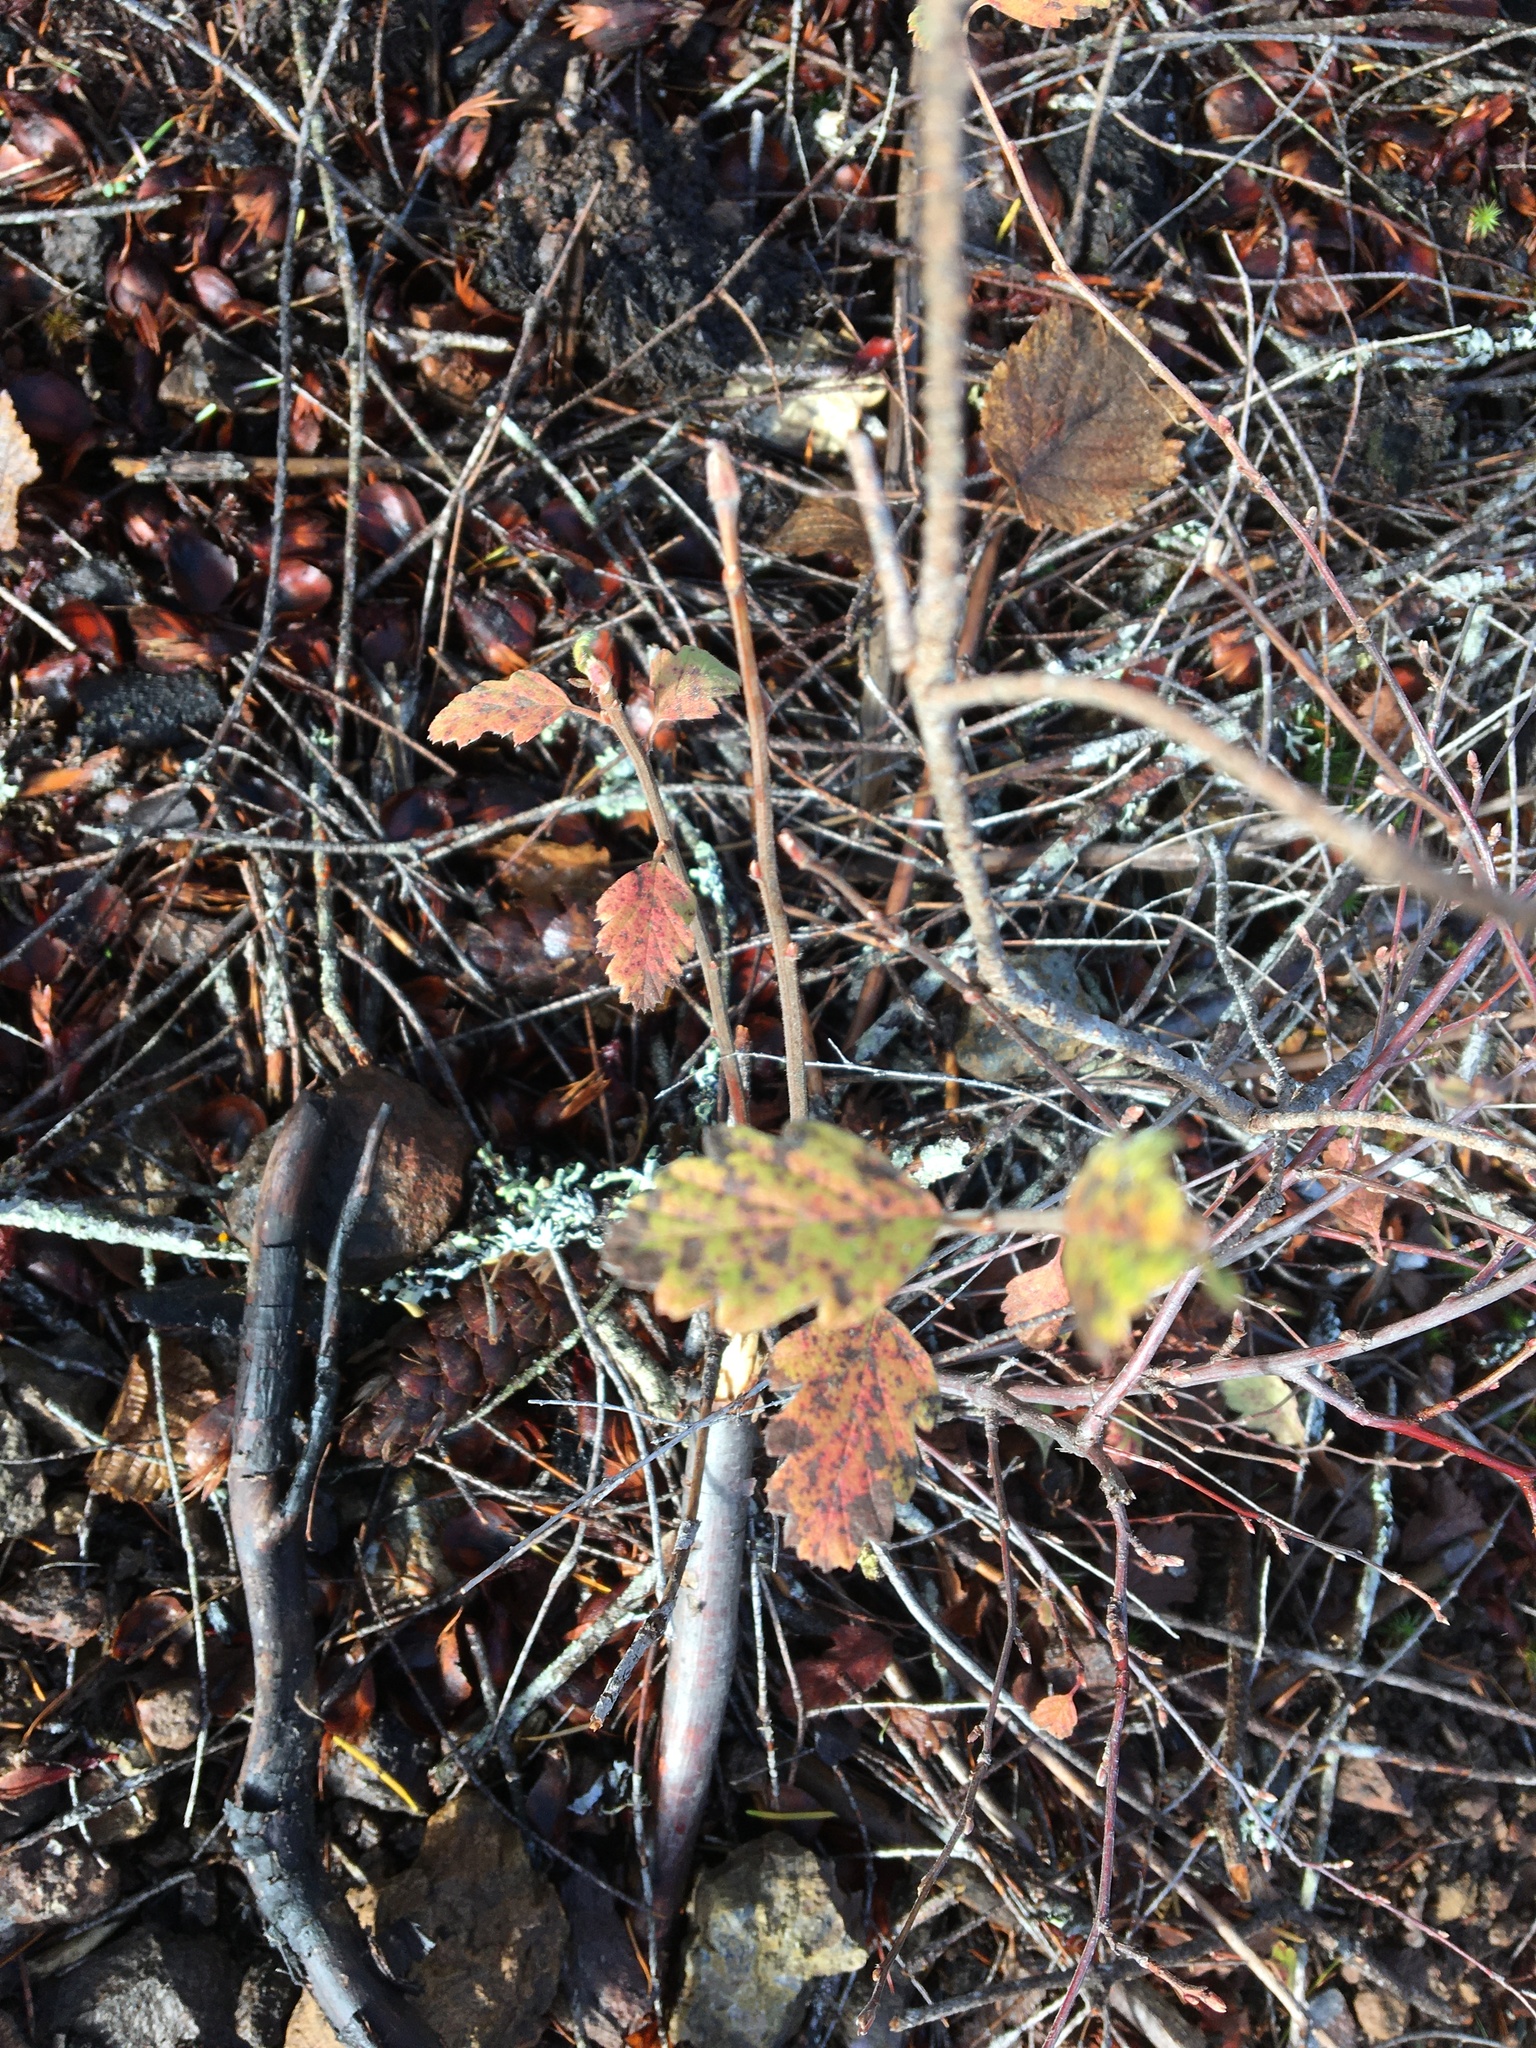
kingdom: Plantae
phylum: Tracheophyta
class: Magnoliopsida
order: Rosales
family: Rosaceae
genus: Holodiscus
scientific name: Holodiscus discolor
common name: Oceanspray
